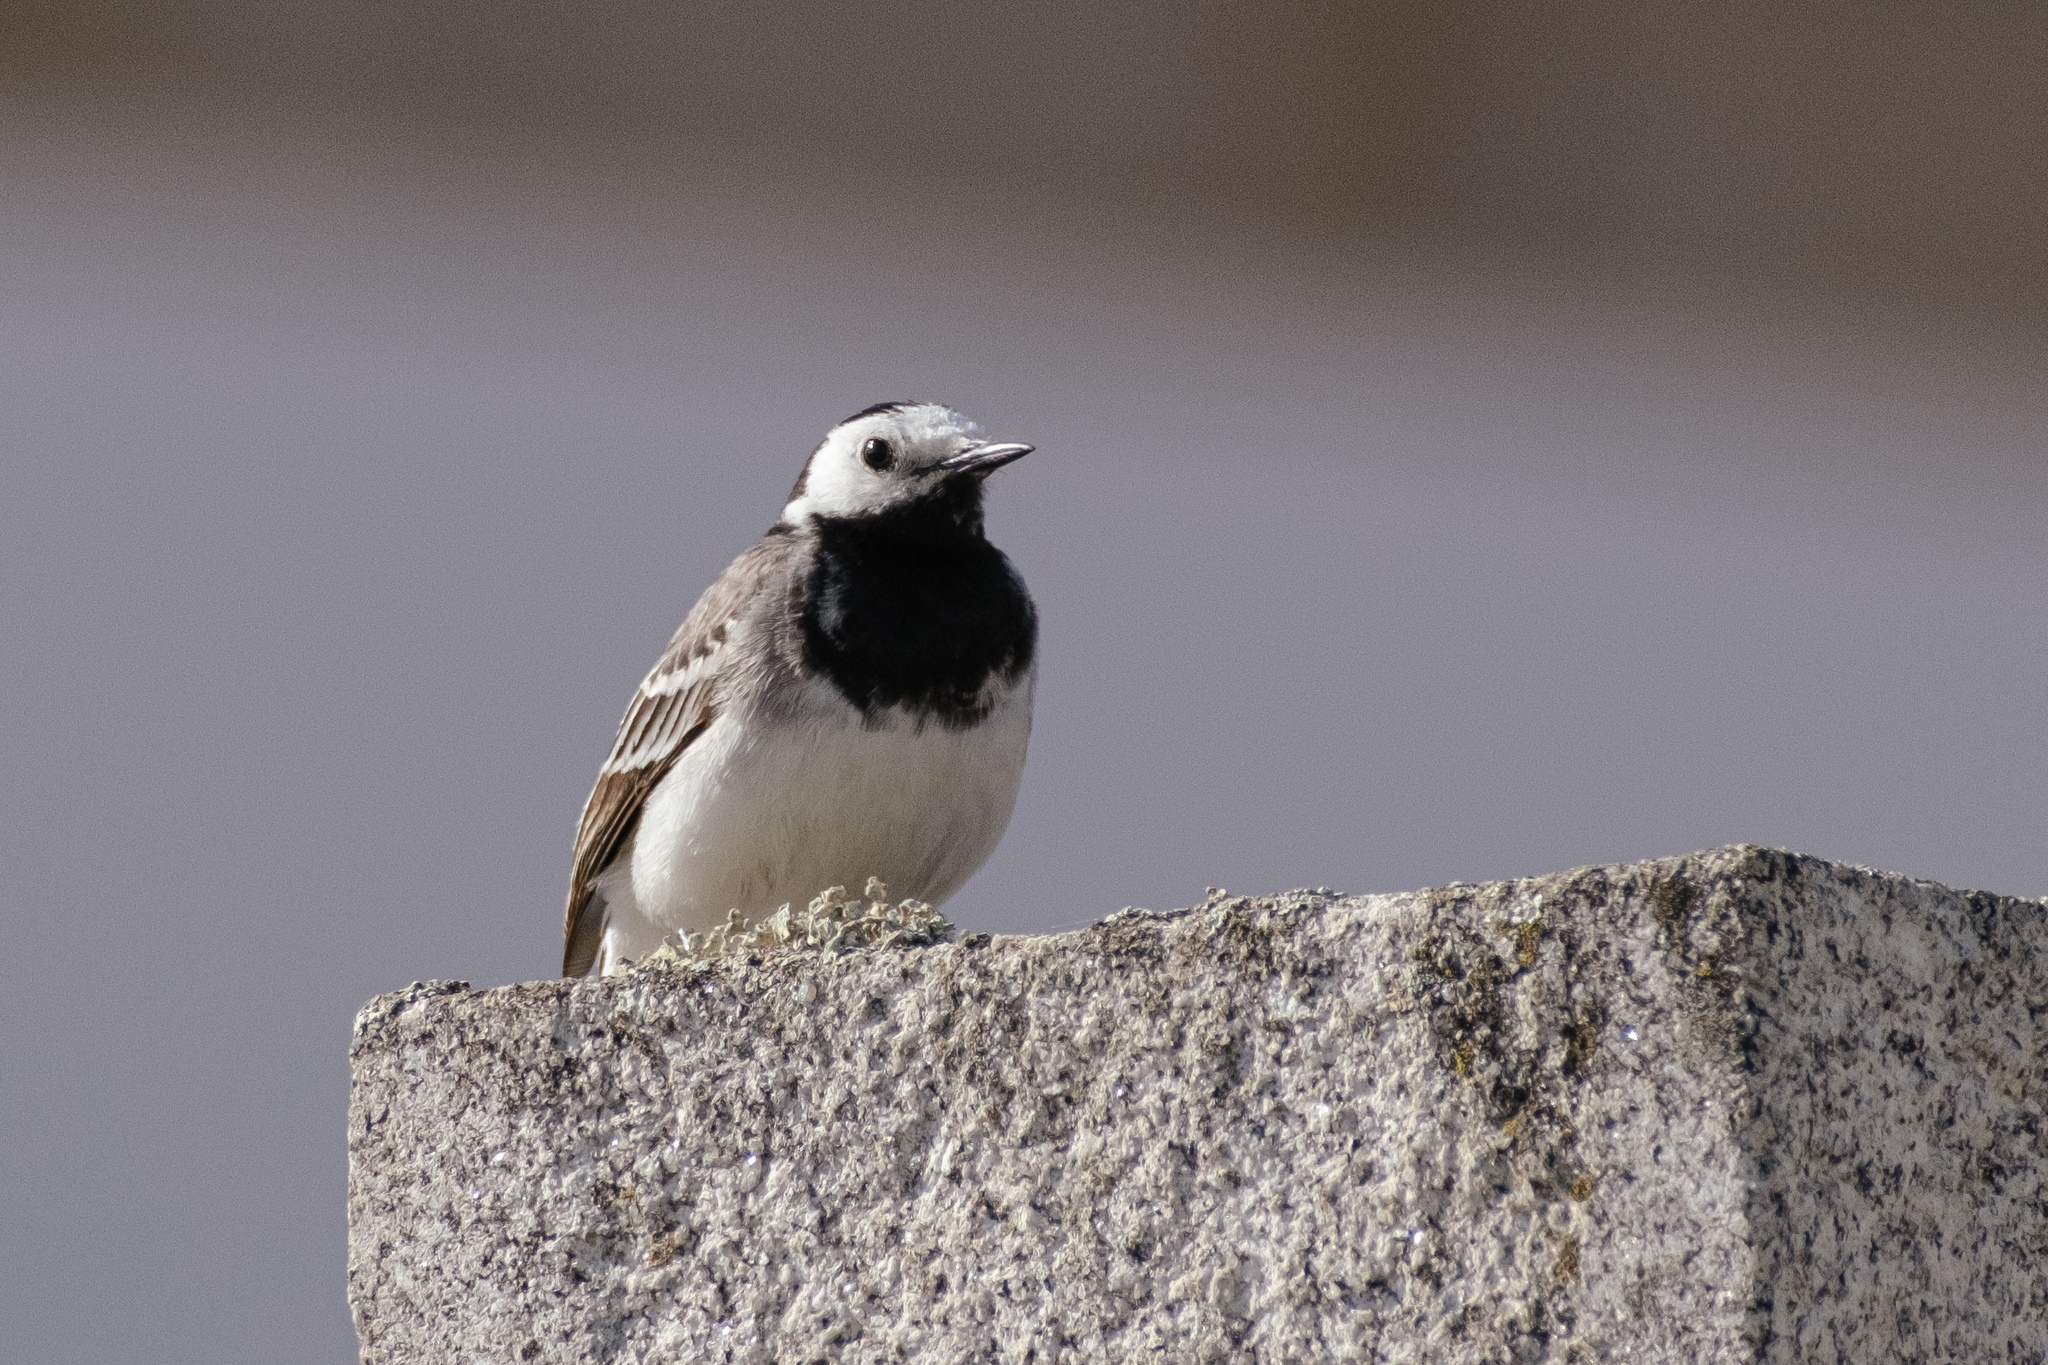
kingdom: Animalia
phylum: Chordata
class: Aves
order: Passeriformes
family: Motacillidae
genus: Motacilla
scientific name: Motacilla alba
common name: White wagtail
